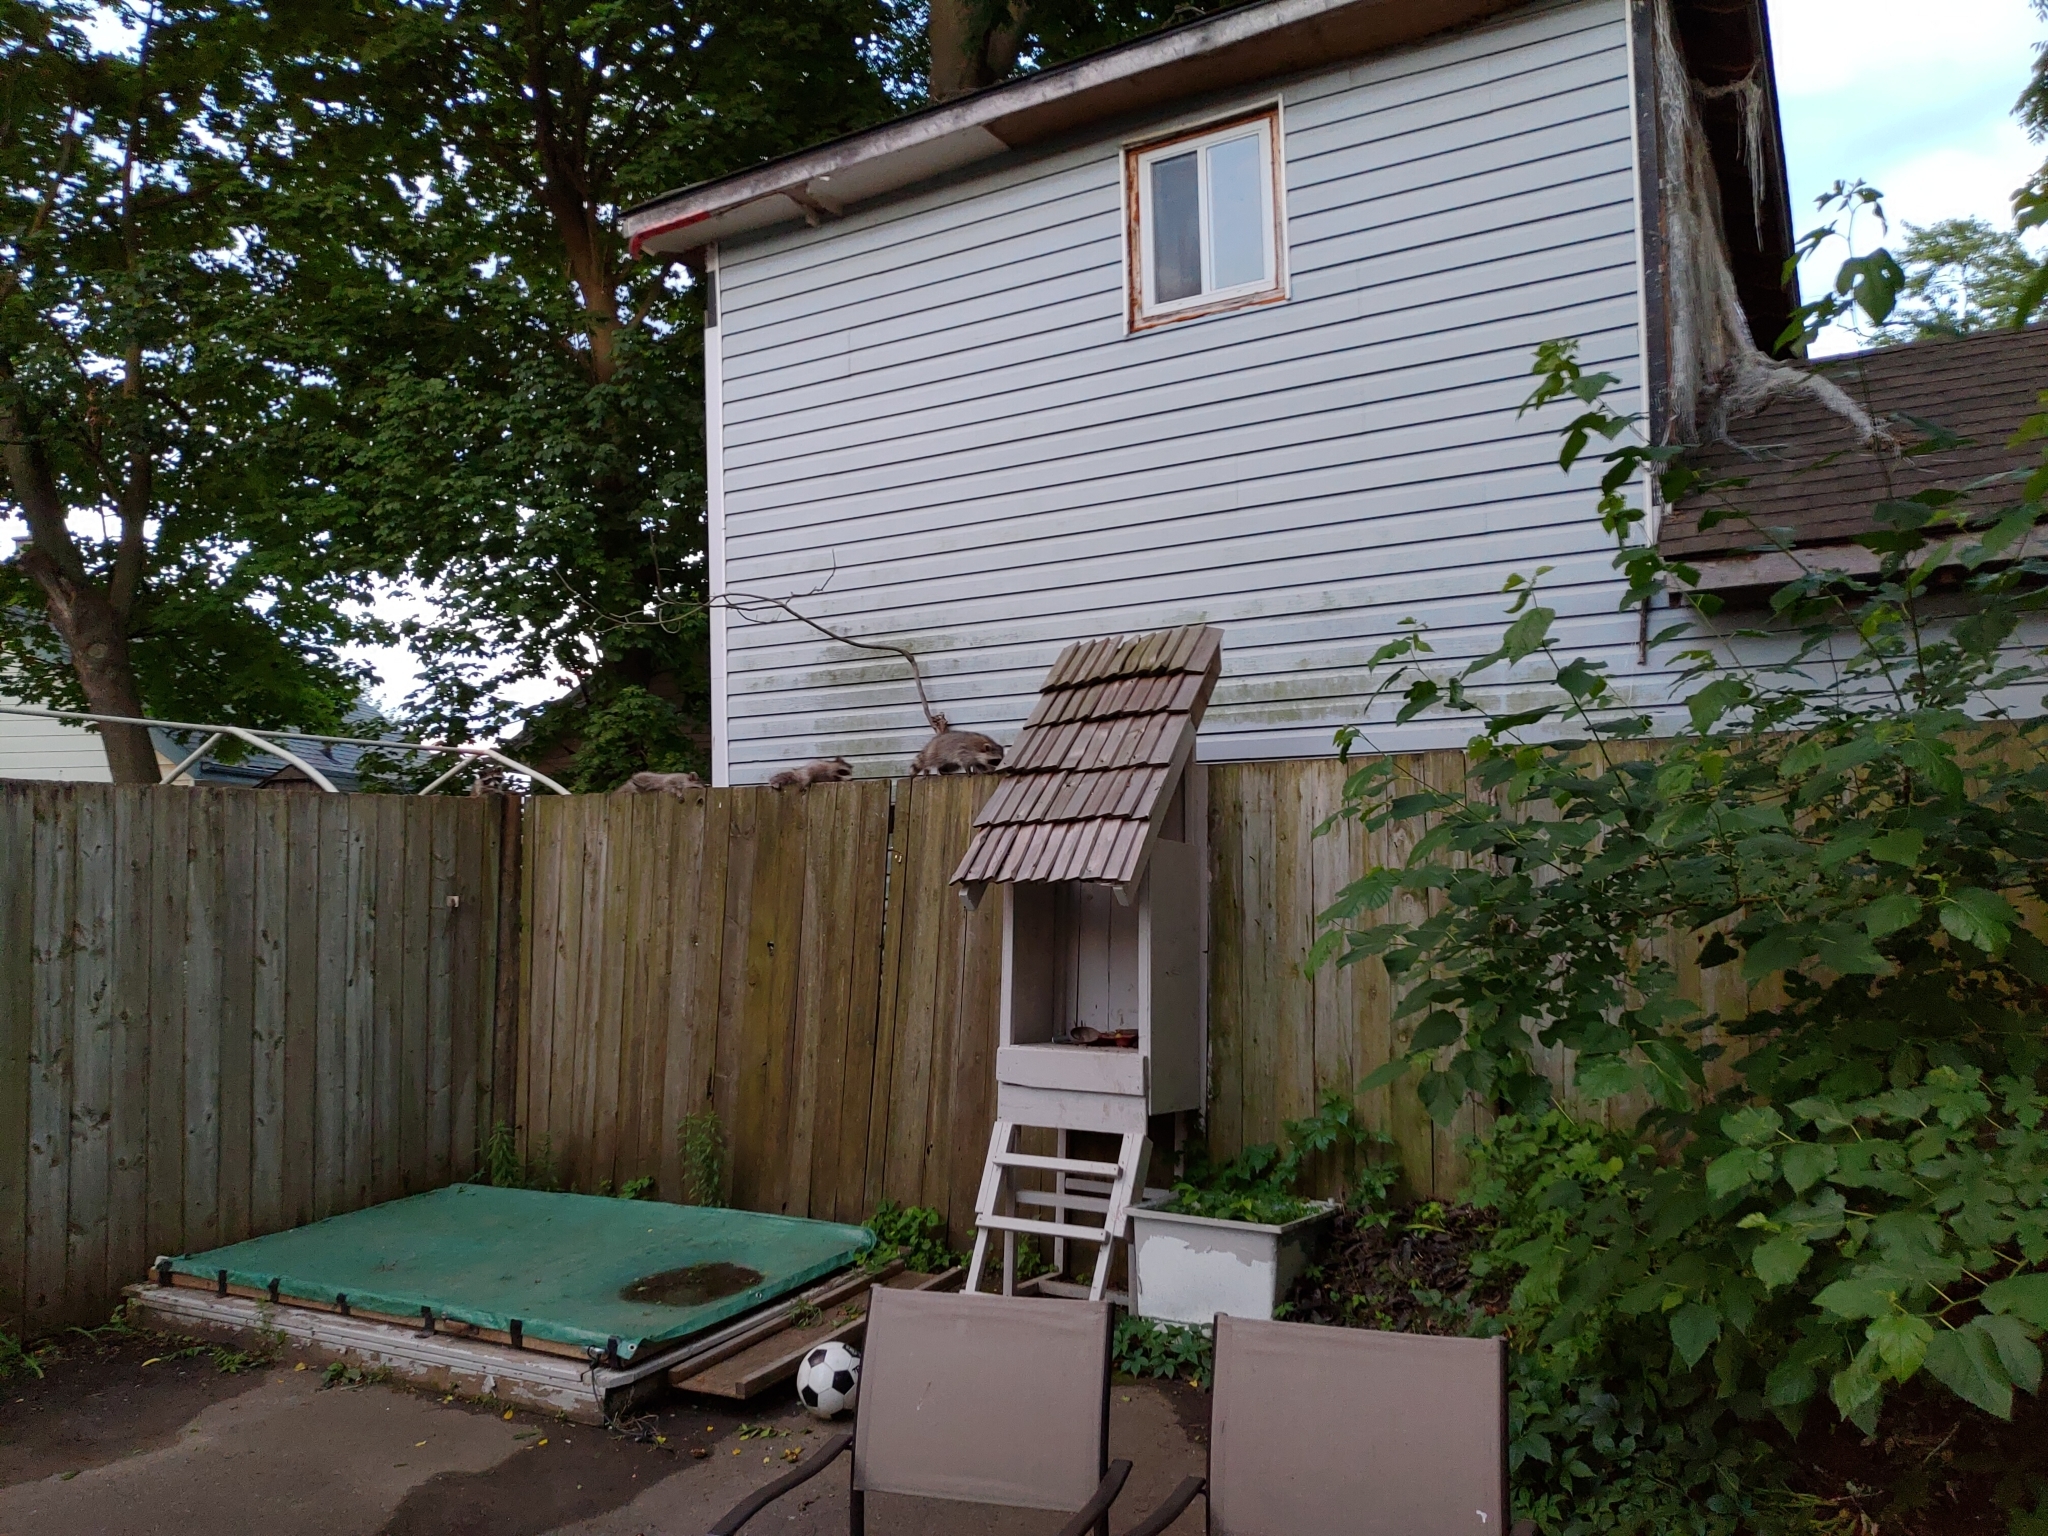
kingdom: Animalia
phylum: Chordata
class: Mammalia
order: Carnivora
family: Procyonidae
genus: Procyon
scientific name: Procyon lotor
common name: Raccoon
